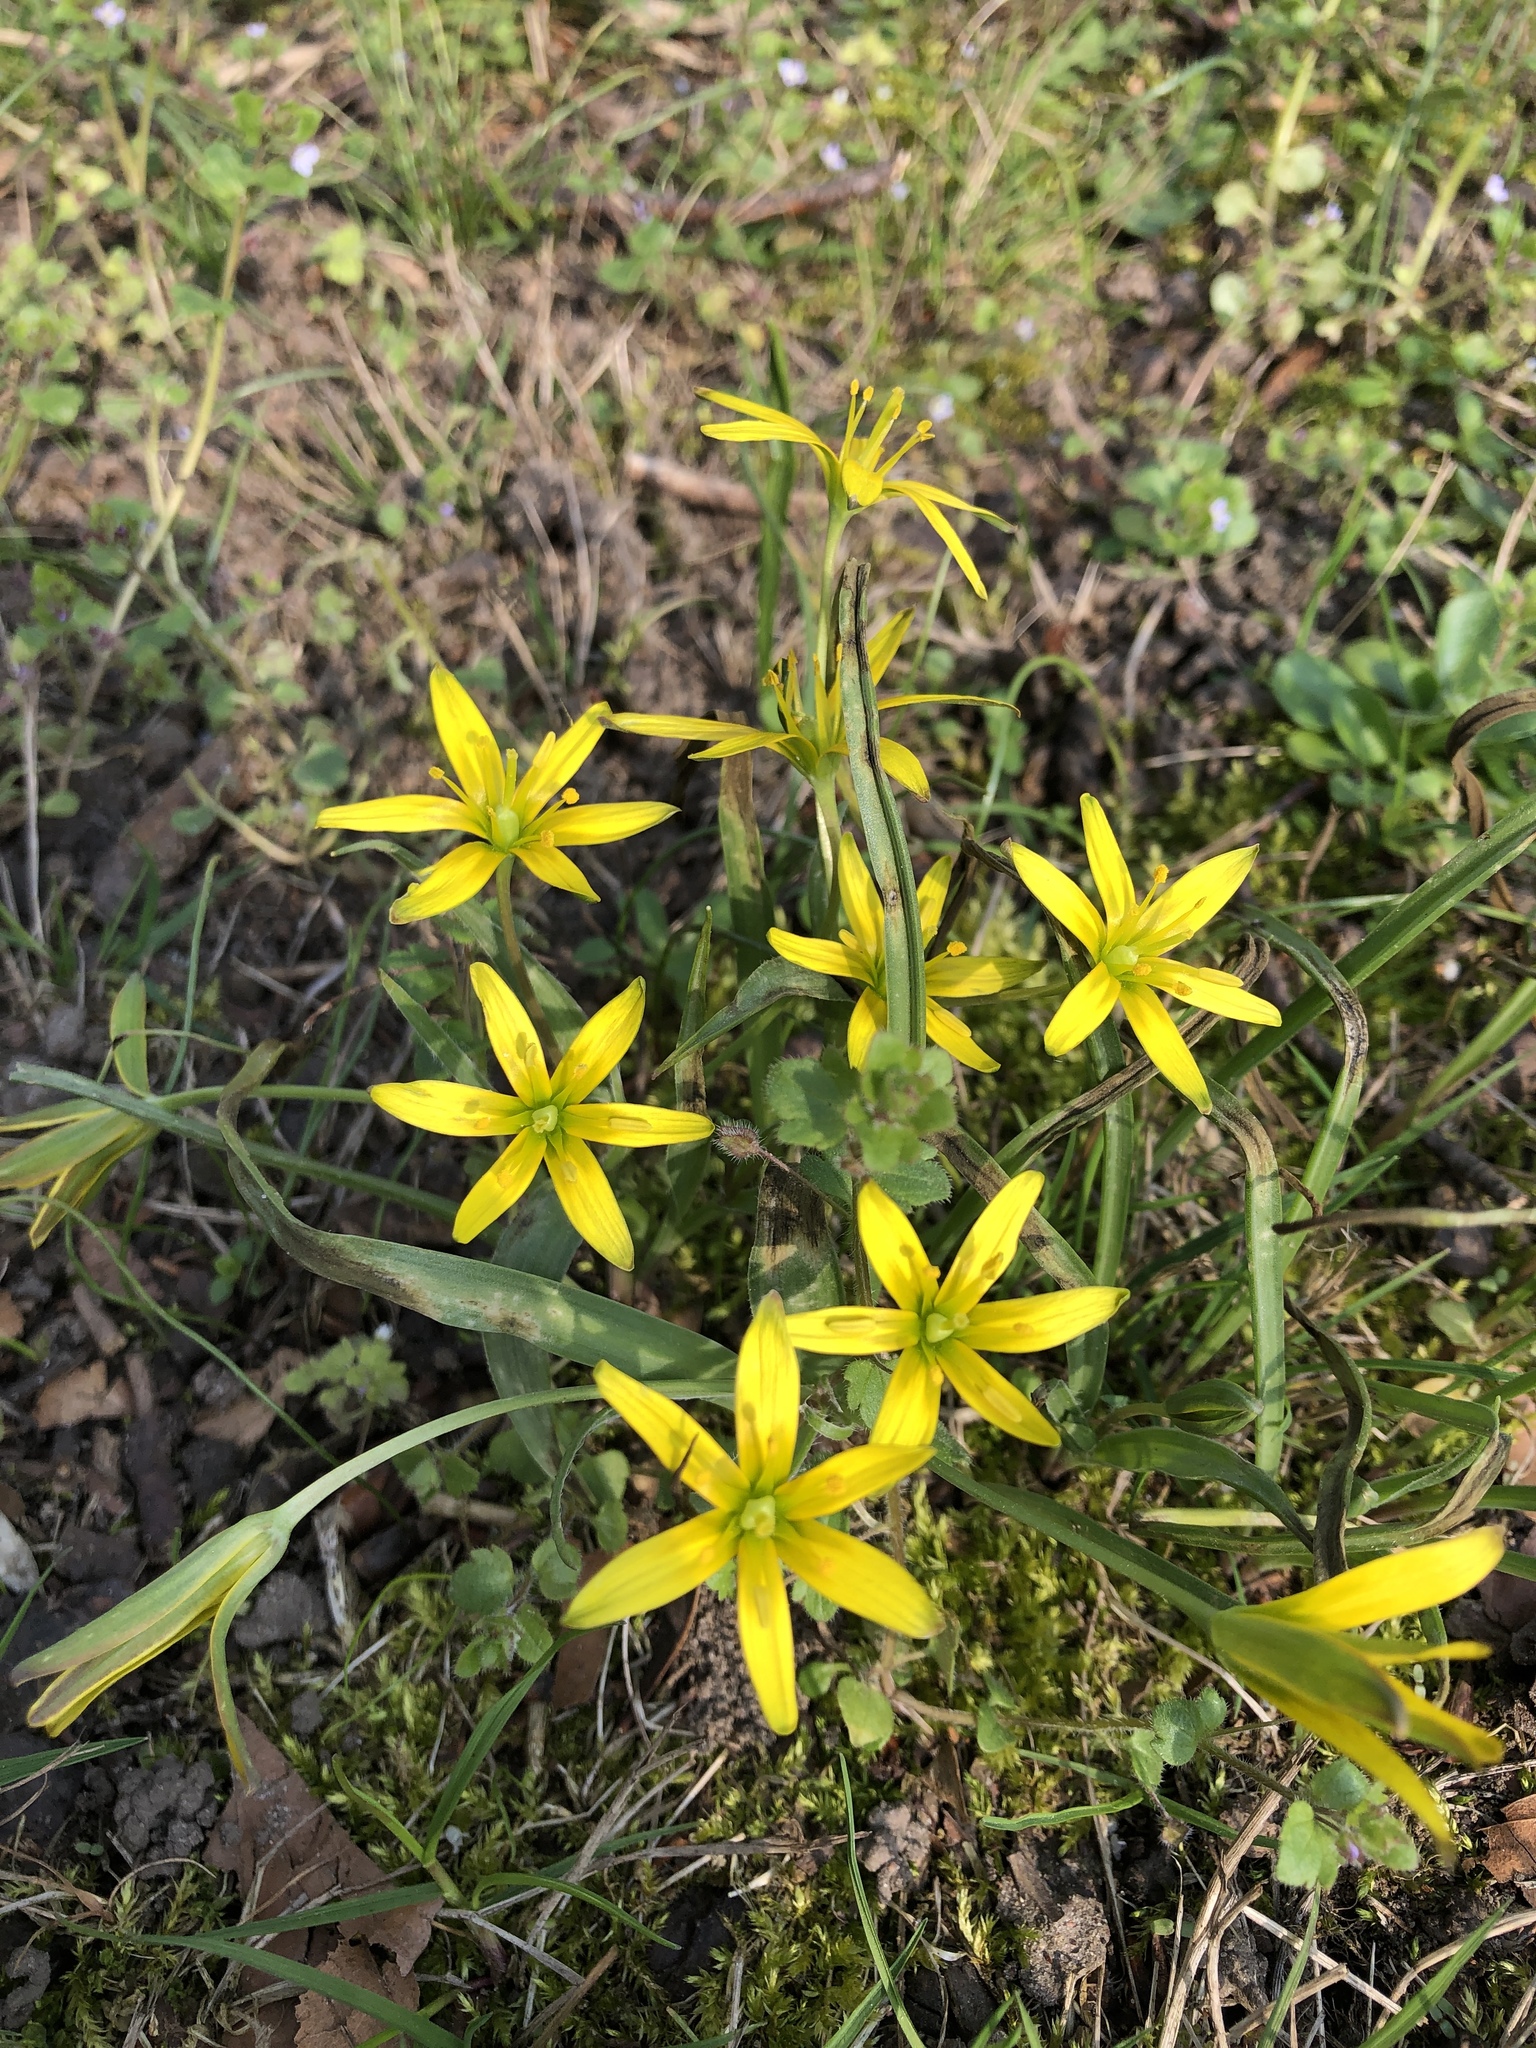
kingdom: Plantae
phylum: Tracheophyta
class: Liliopsida
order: Liliales
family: Liliaceae
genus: Gagea
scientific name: Gagea lutea
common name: Yellow star-of-bethlehem
